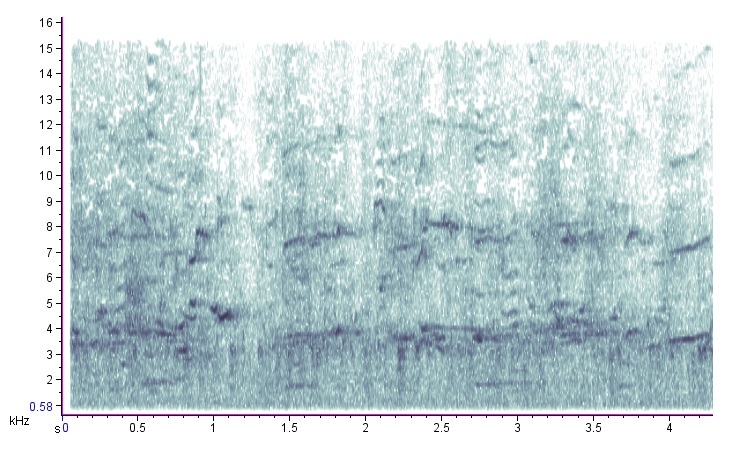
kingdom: Animalia
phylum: Chordata
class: Aves
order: Passeriformes
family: Icteridae
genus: Quiscalus
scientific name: Quiscalus quiscula
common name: Common grackle
